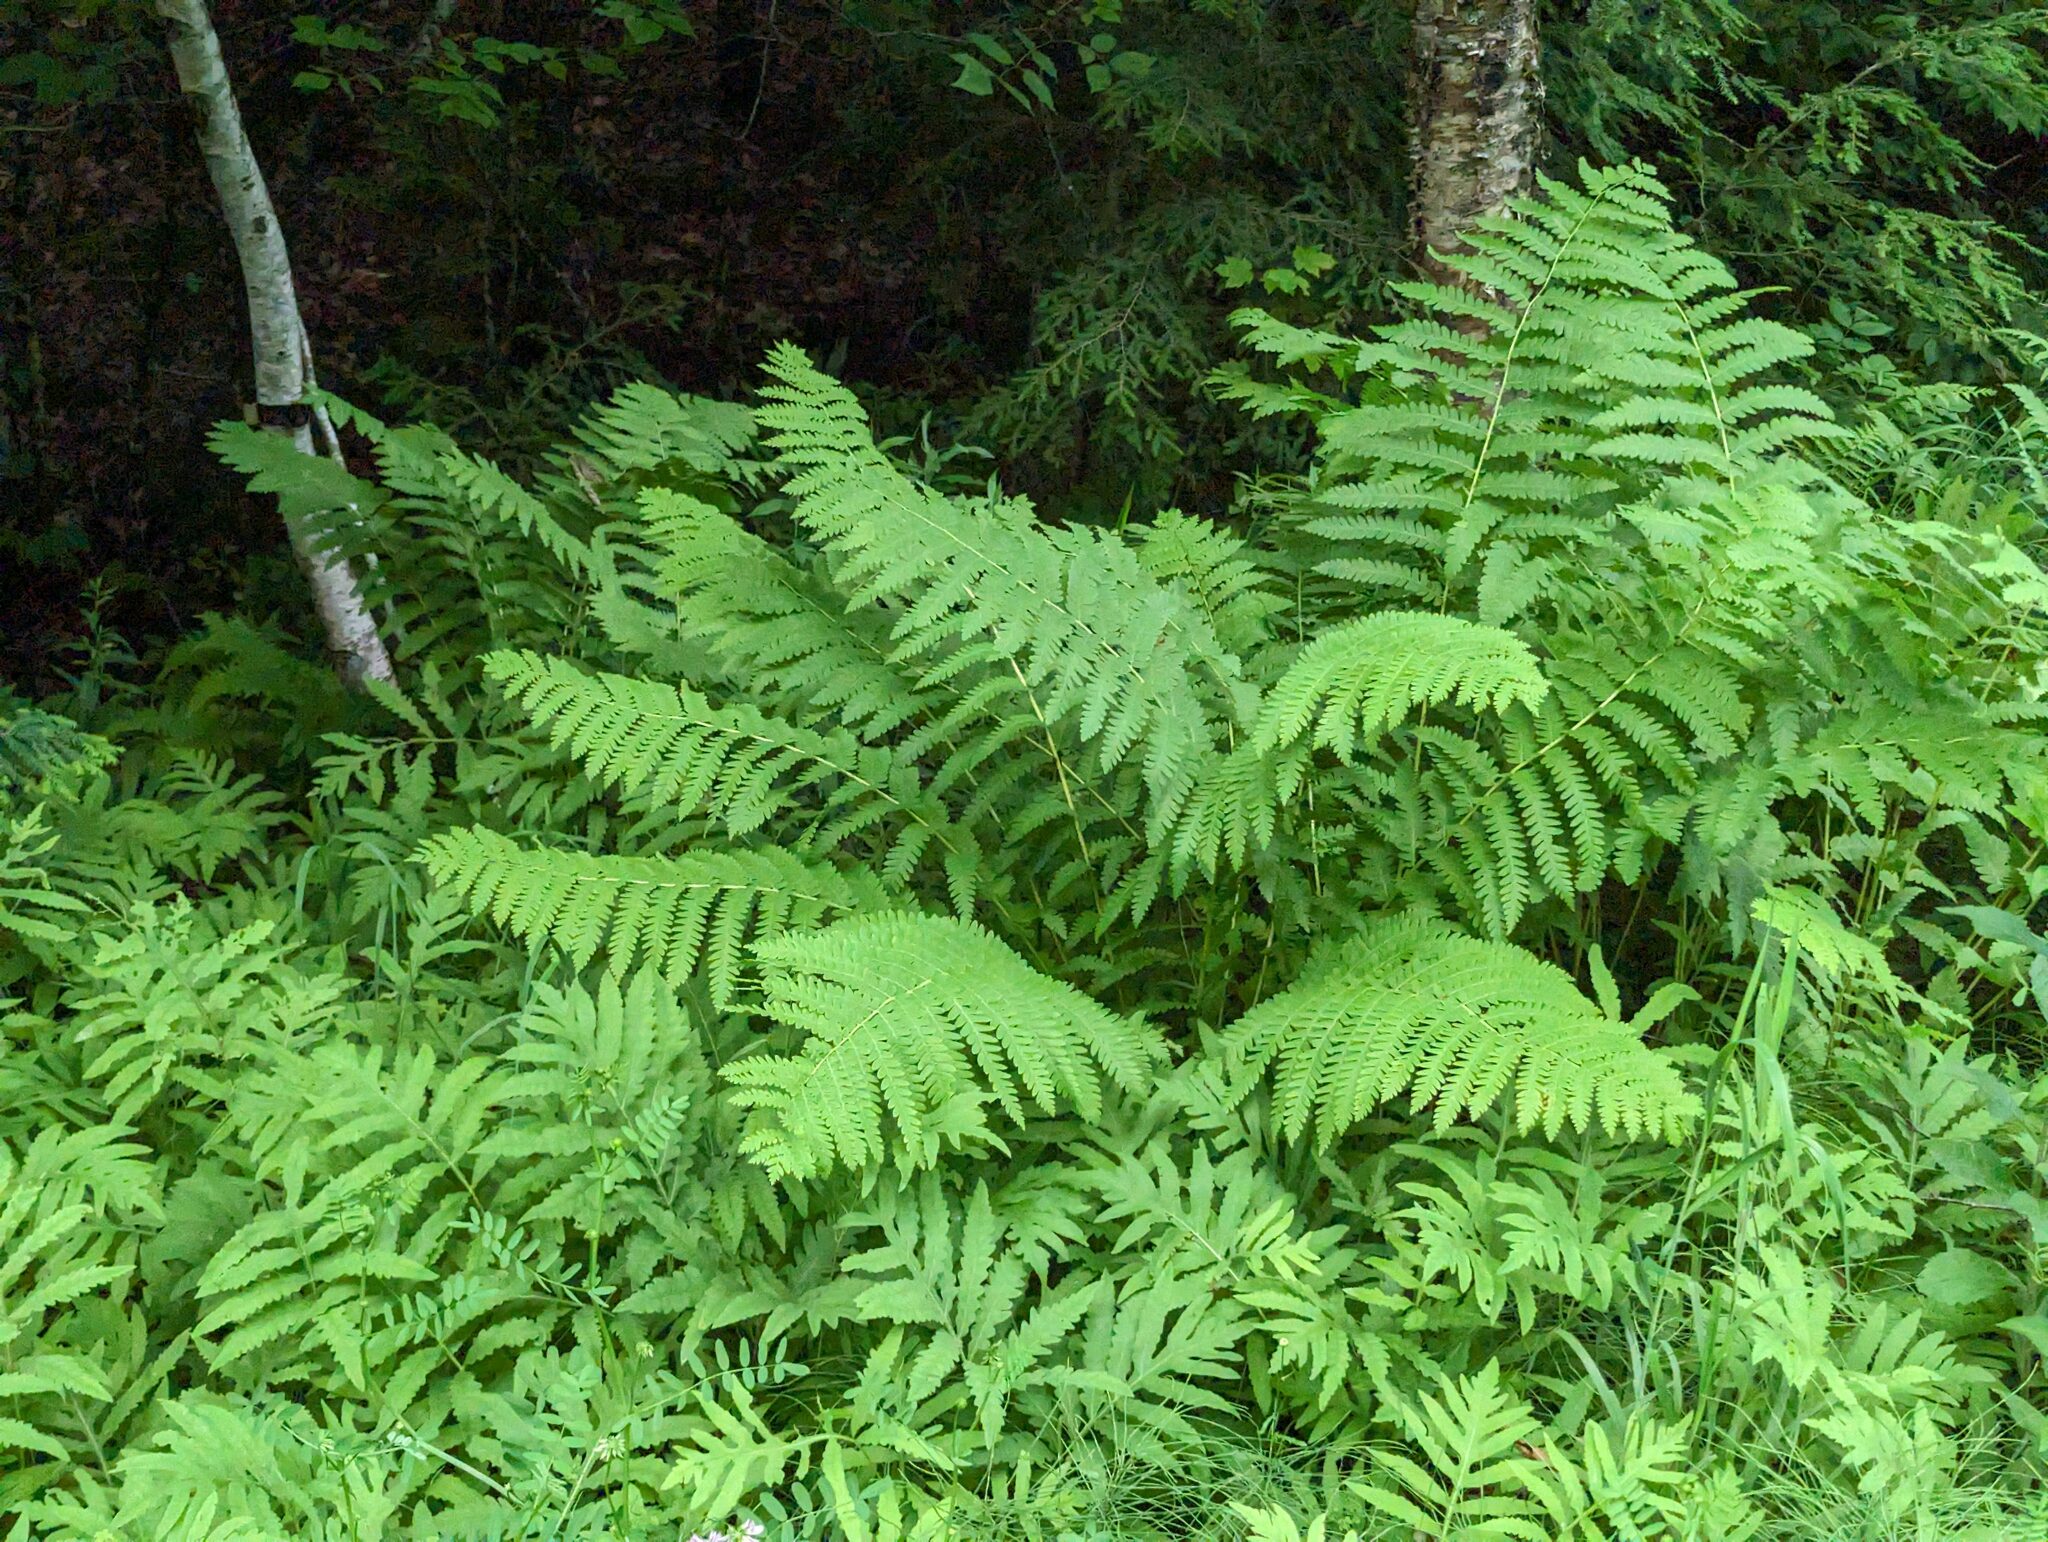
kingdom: Plantae
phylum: Tracheophyta
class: Polypodiopsida
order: Osmundales
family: Osmundaceae
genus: Claytosmunda
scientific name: Claytosmunda claytoniana
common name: Clayton's fern
